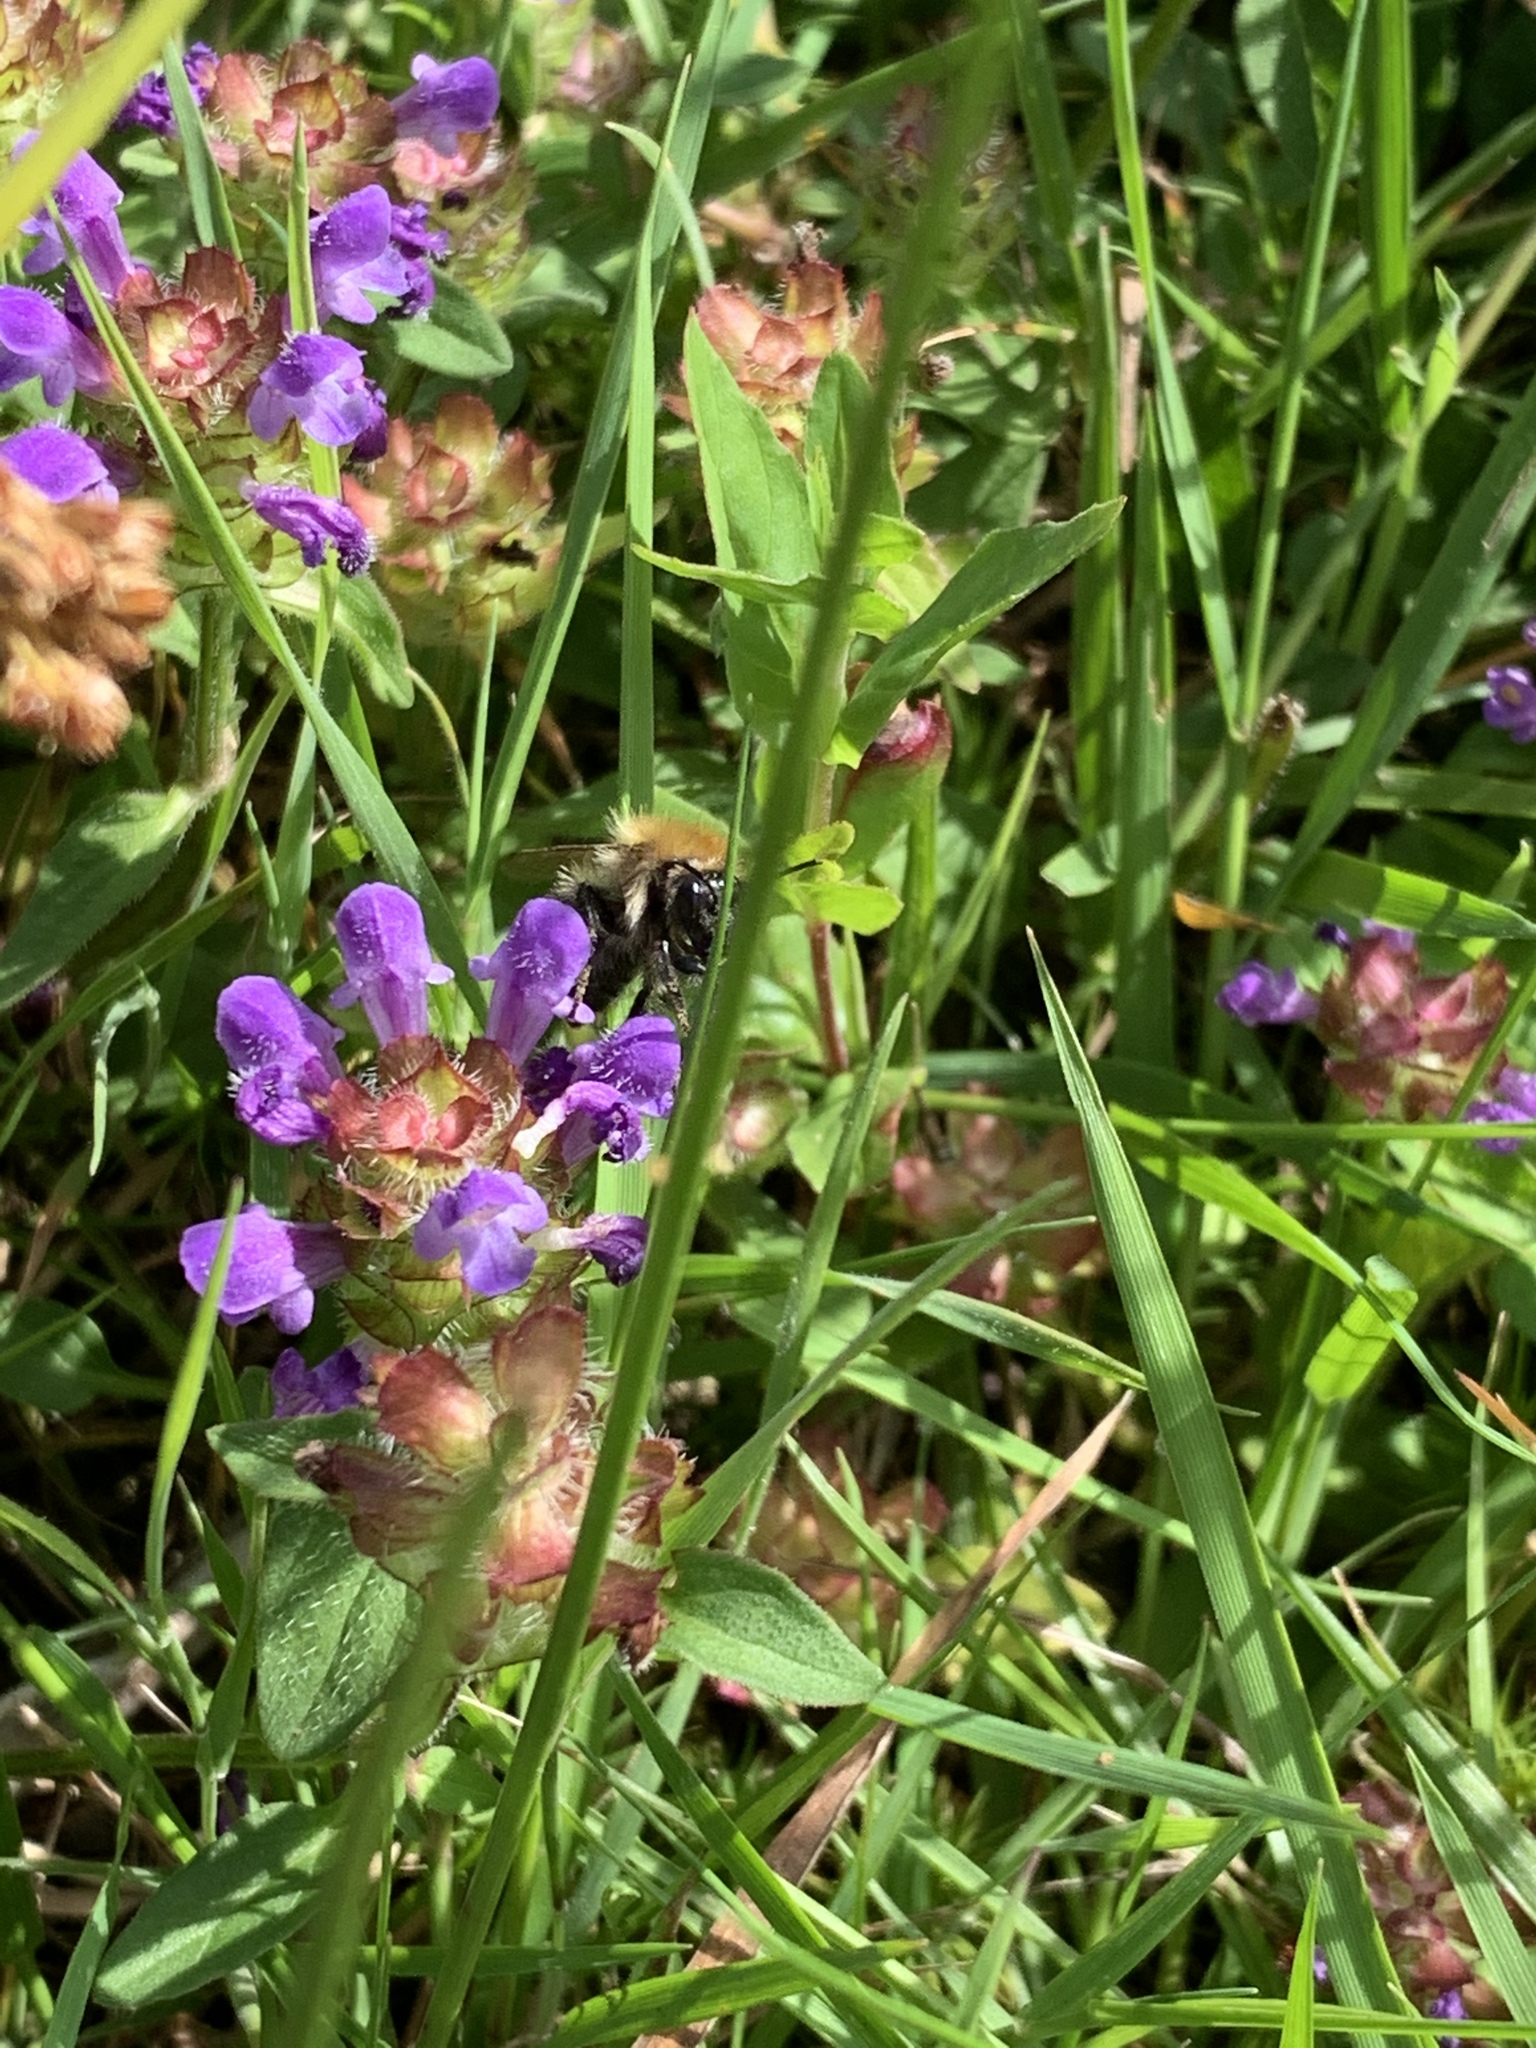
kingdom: Plantae
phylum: Tracheophyta
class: Magnoliopsida
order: Lamiales
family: Lamiaceae
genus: Prunella
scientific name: Prunella vulgaris
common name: Heal-all
